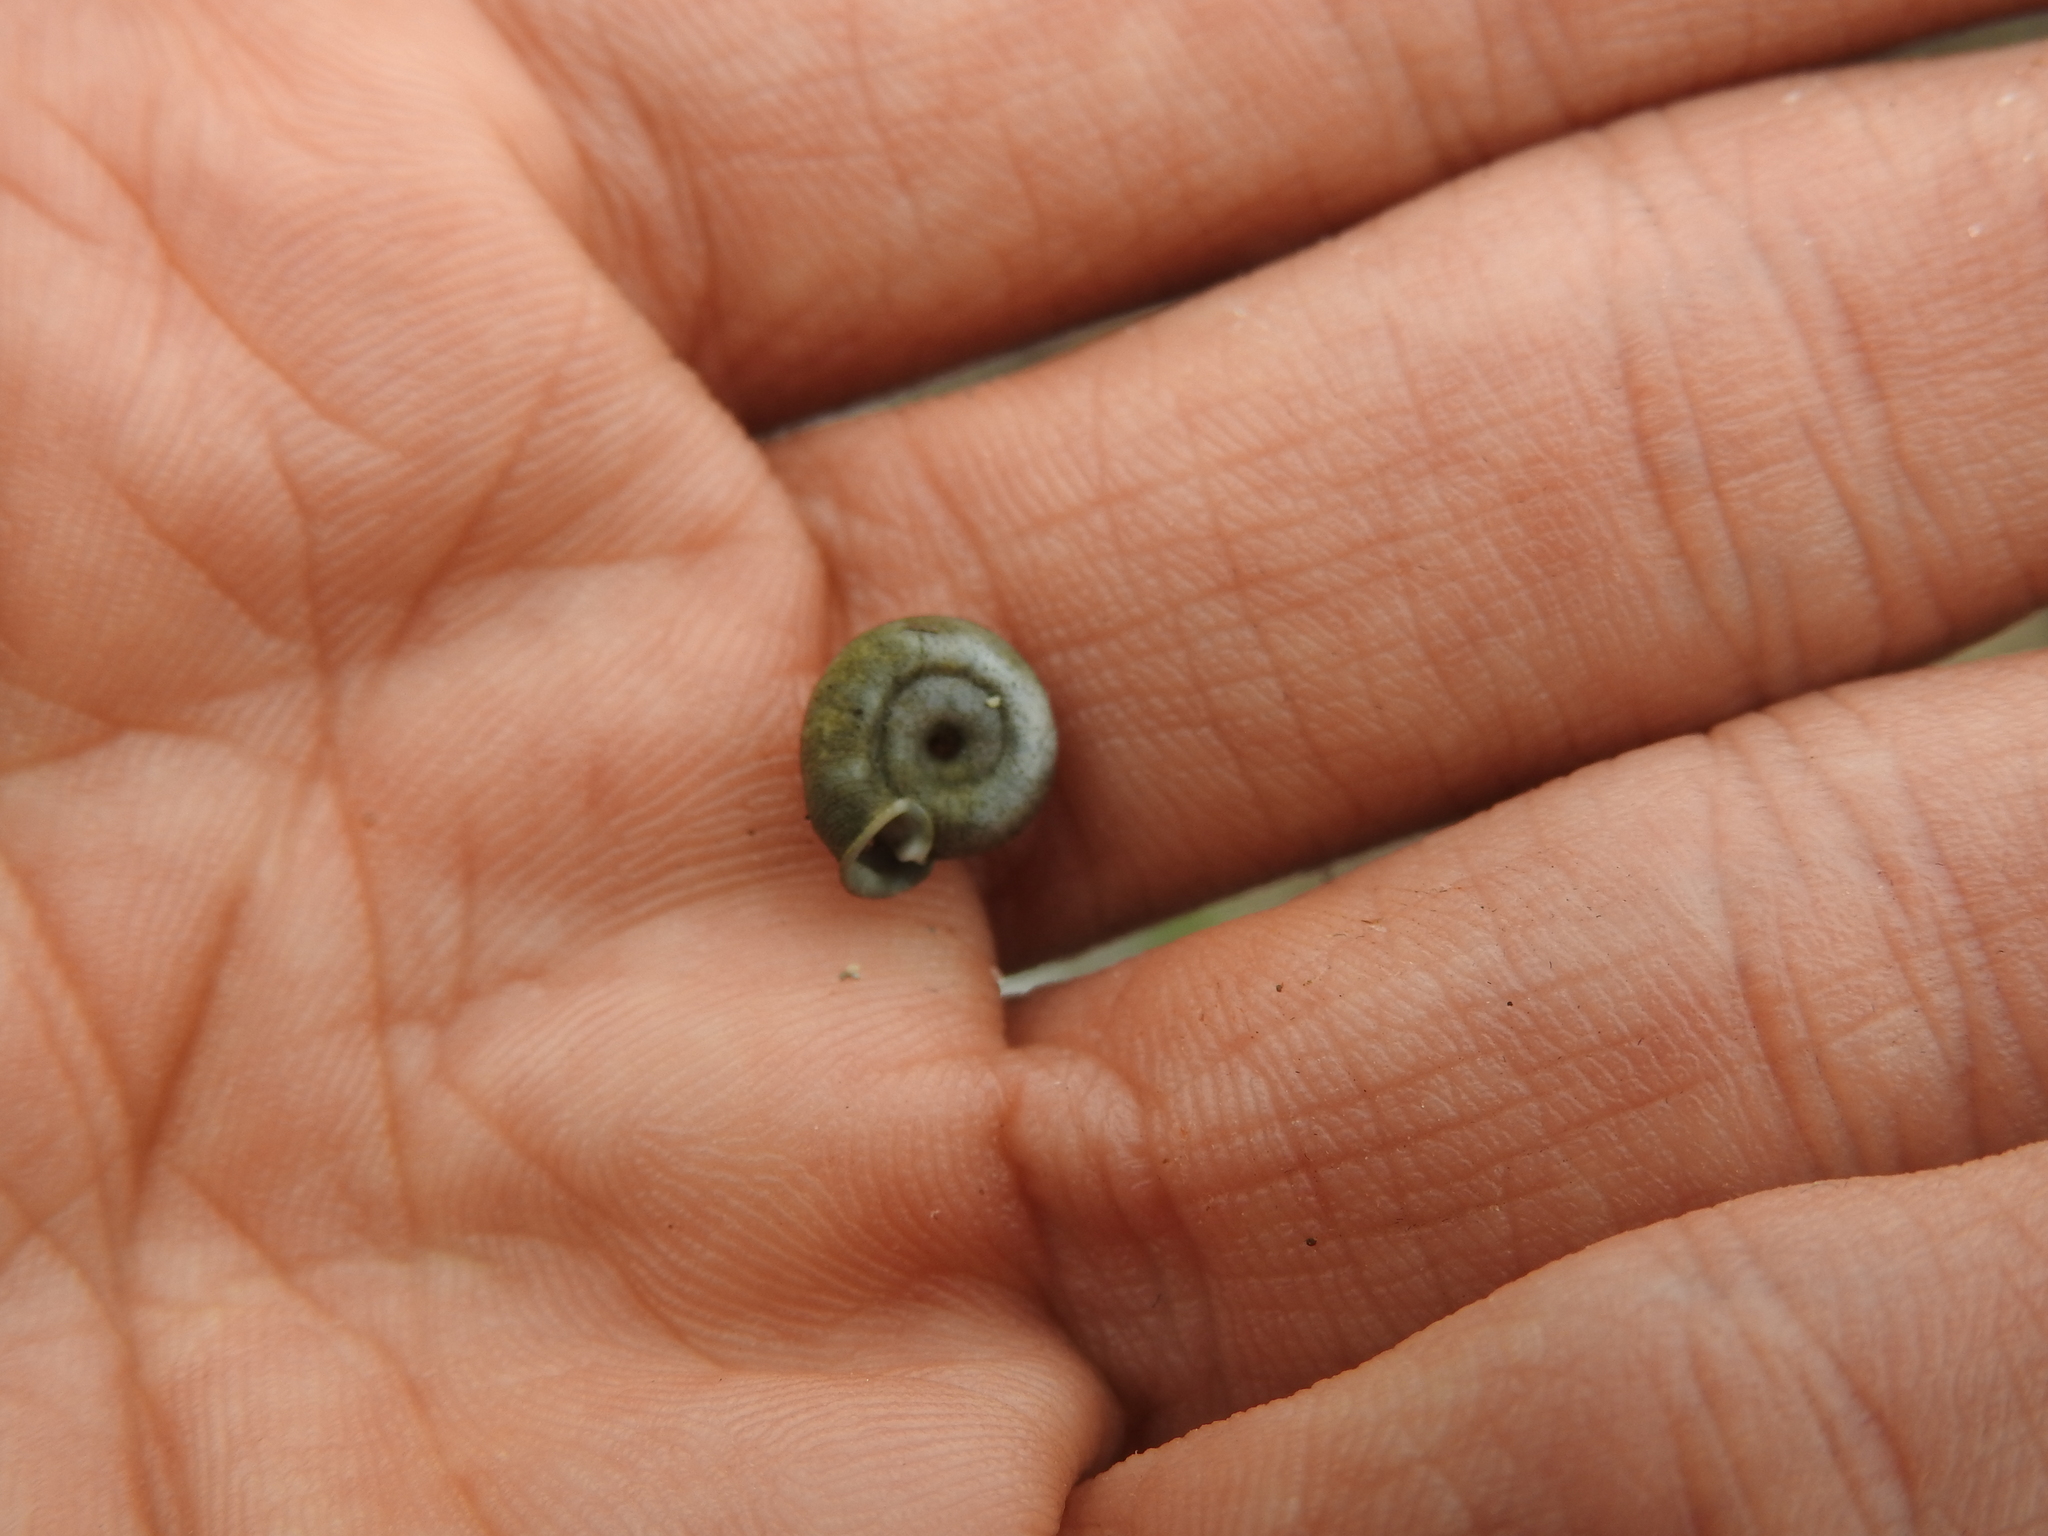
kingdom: Animalia
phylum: Mollusca
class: Gastropoda
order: Stylommatophora
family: Polygyridae
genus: Polygyra
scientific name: Polygyra cereolus
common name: Southern flatcone snail
